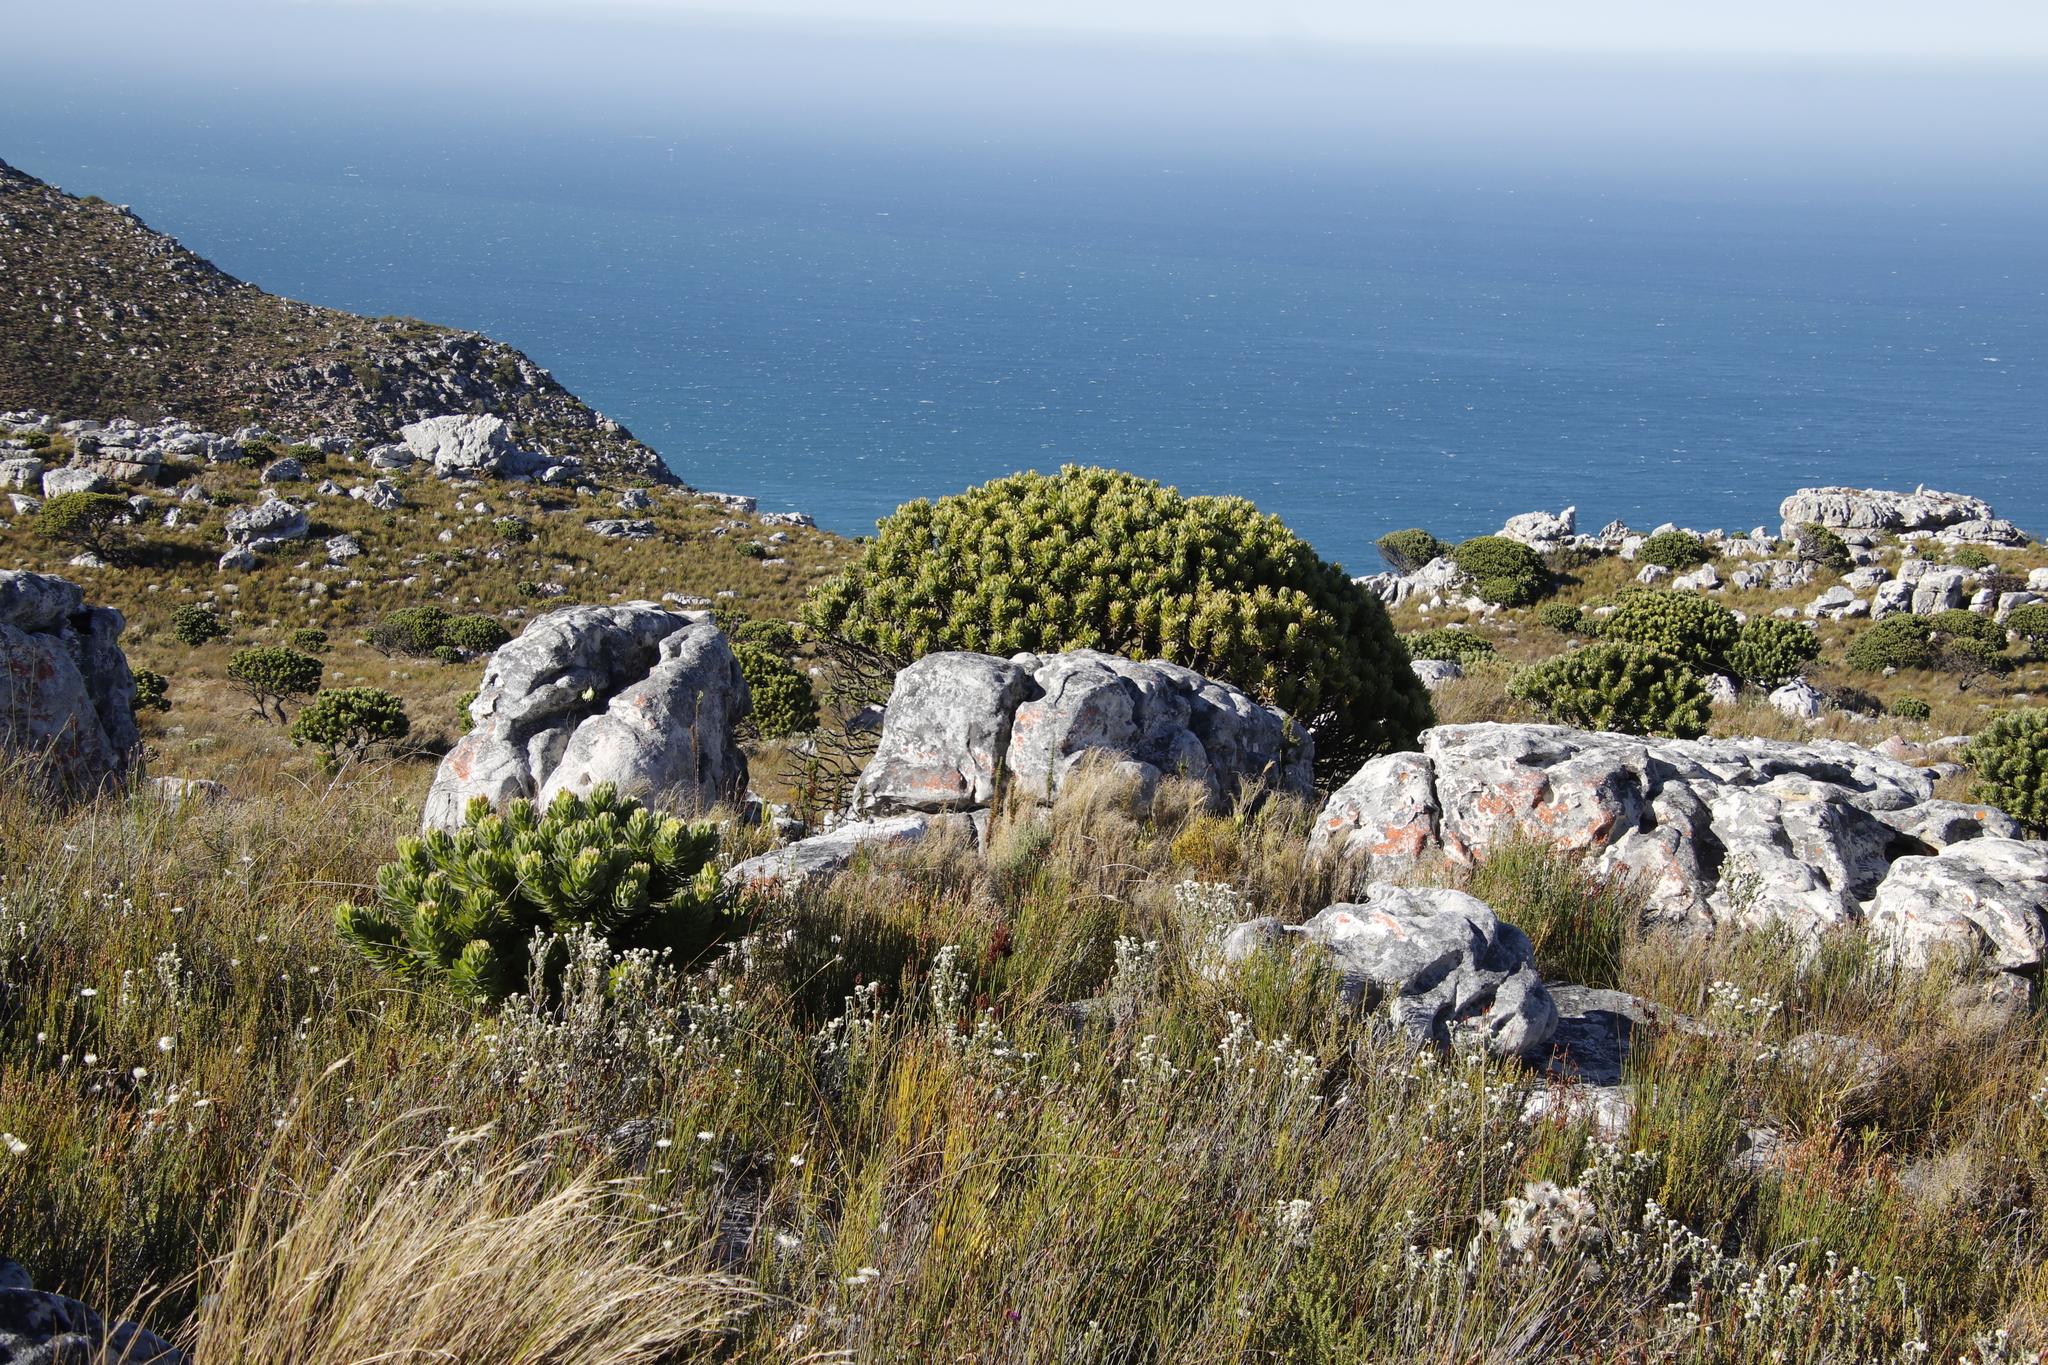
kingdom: Plantae
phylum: Tracheophyta
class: Magnoliopsida
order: Proteales
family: Proteaceae
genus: Mimetes
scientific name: Mimetes fimbriifolius
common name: Fringed bottlebrush
